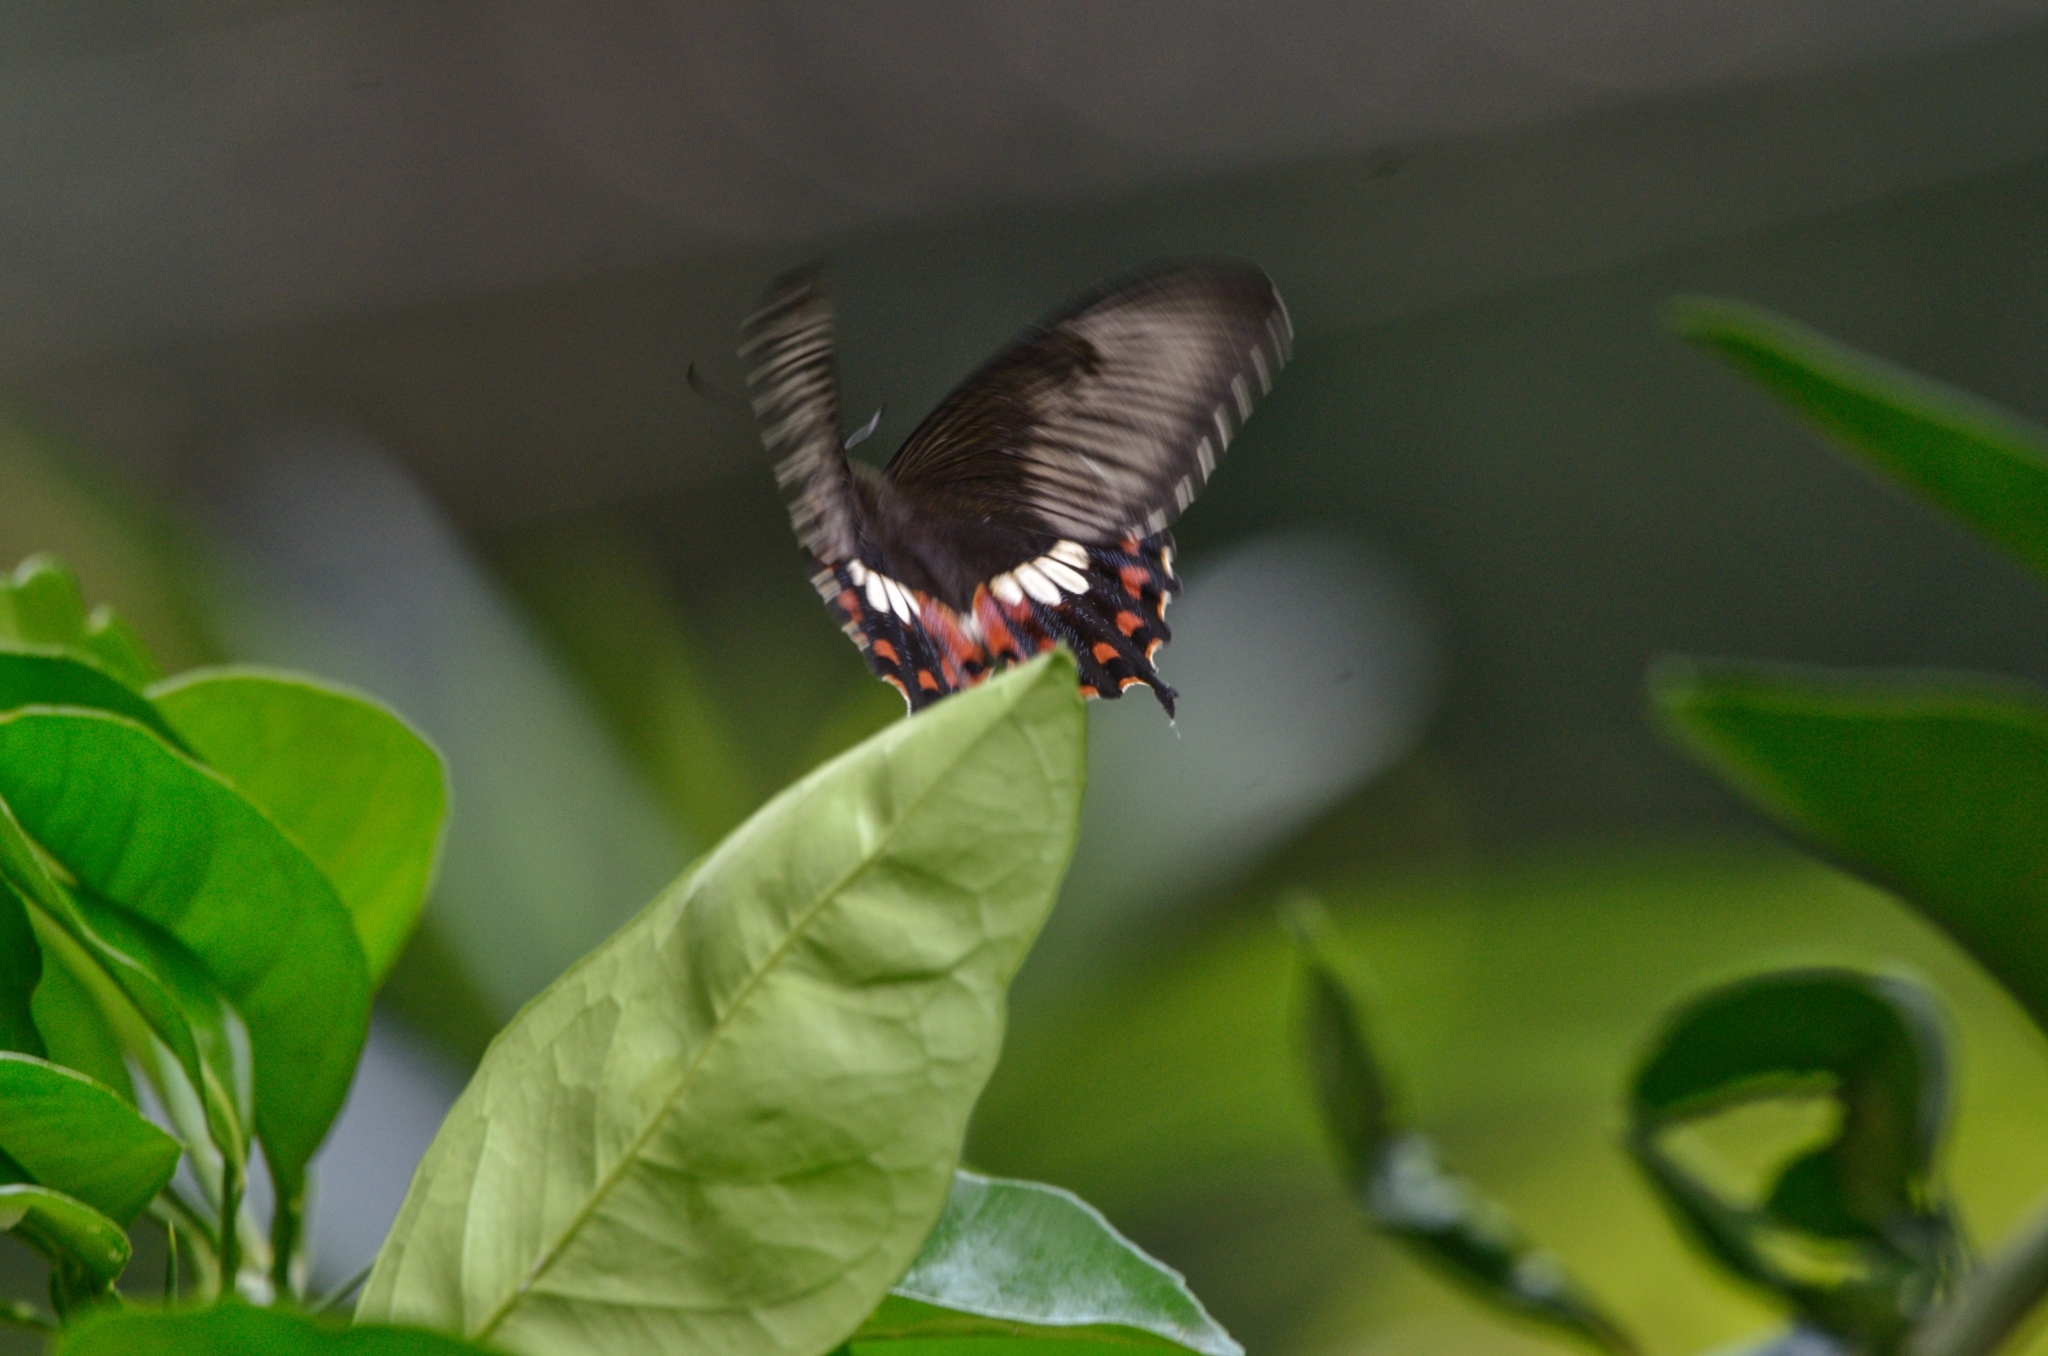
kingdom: Animalia
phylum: Arthropoda
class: Insecta
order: Lepidoptera
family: Papilionidae
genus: Papilio
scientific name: Papilio polytes
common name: Common mormon
